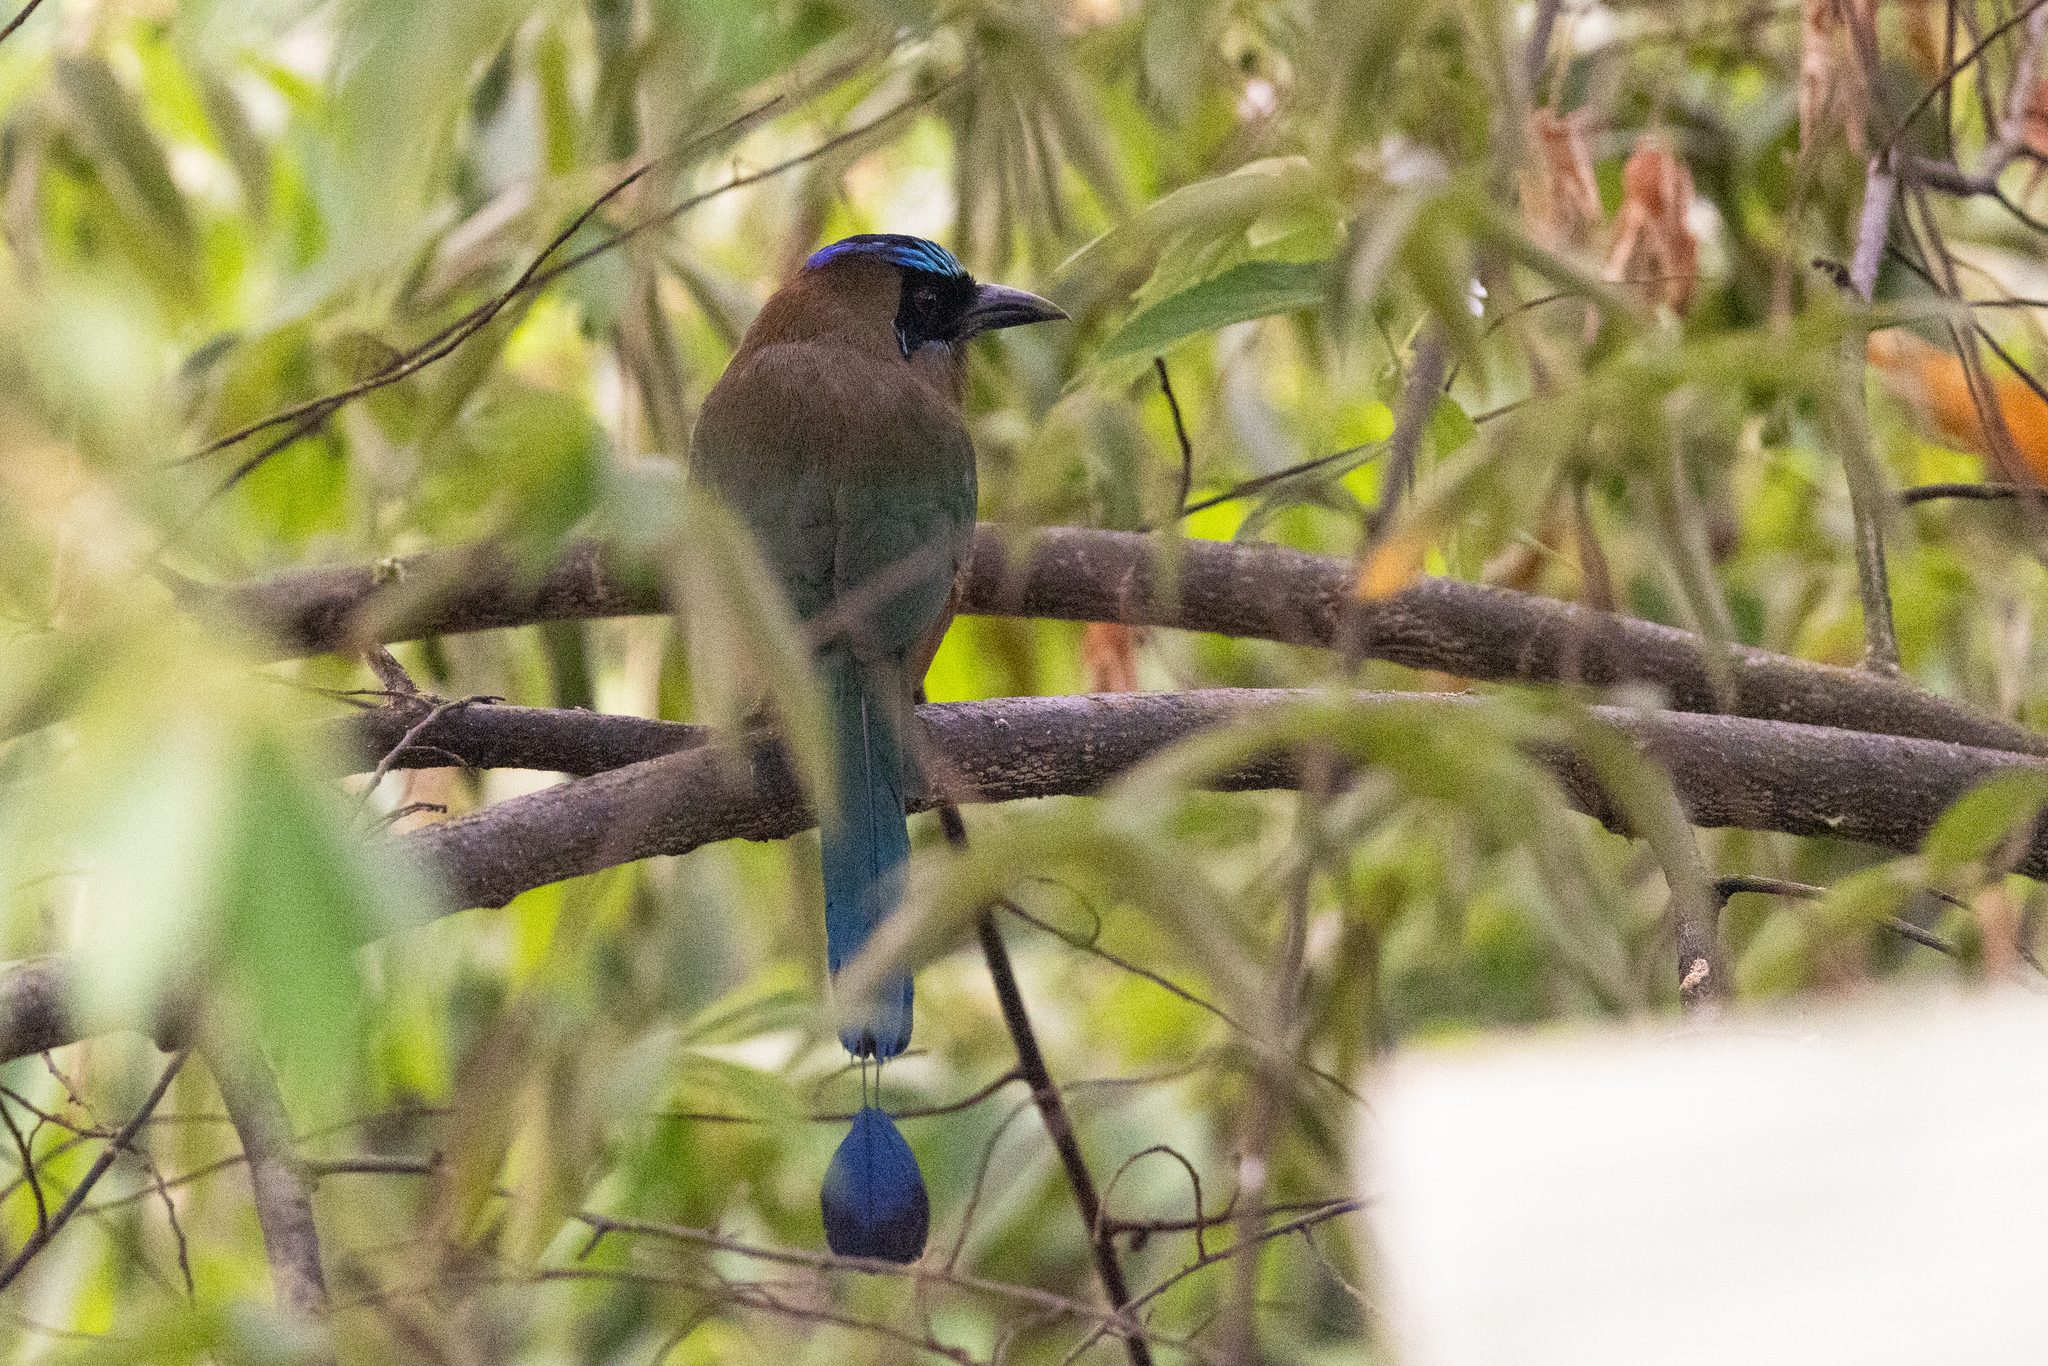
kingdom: Animalia
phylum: Chordata
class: Aves
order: Coraciiformes
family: Momotidae
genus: Momotus
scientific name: Momotus subrufescens
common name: Whooping motmot
